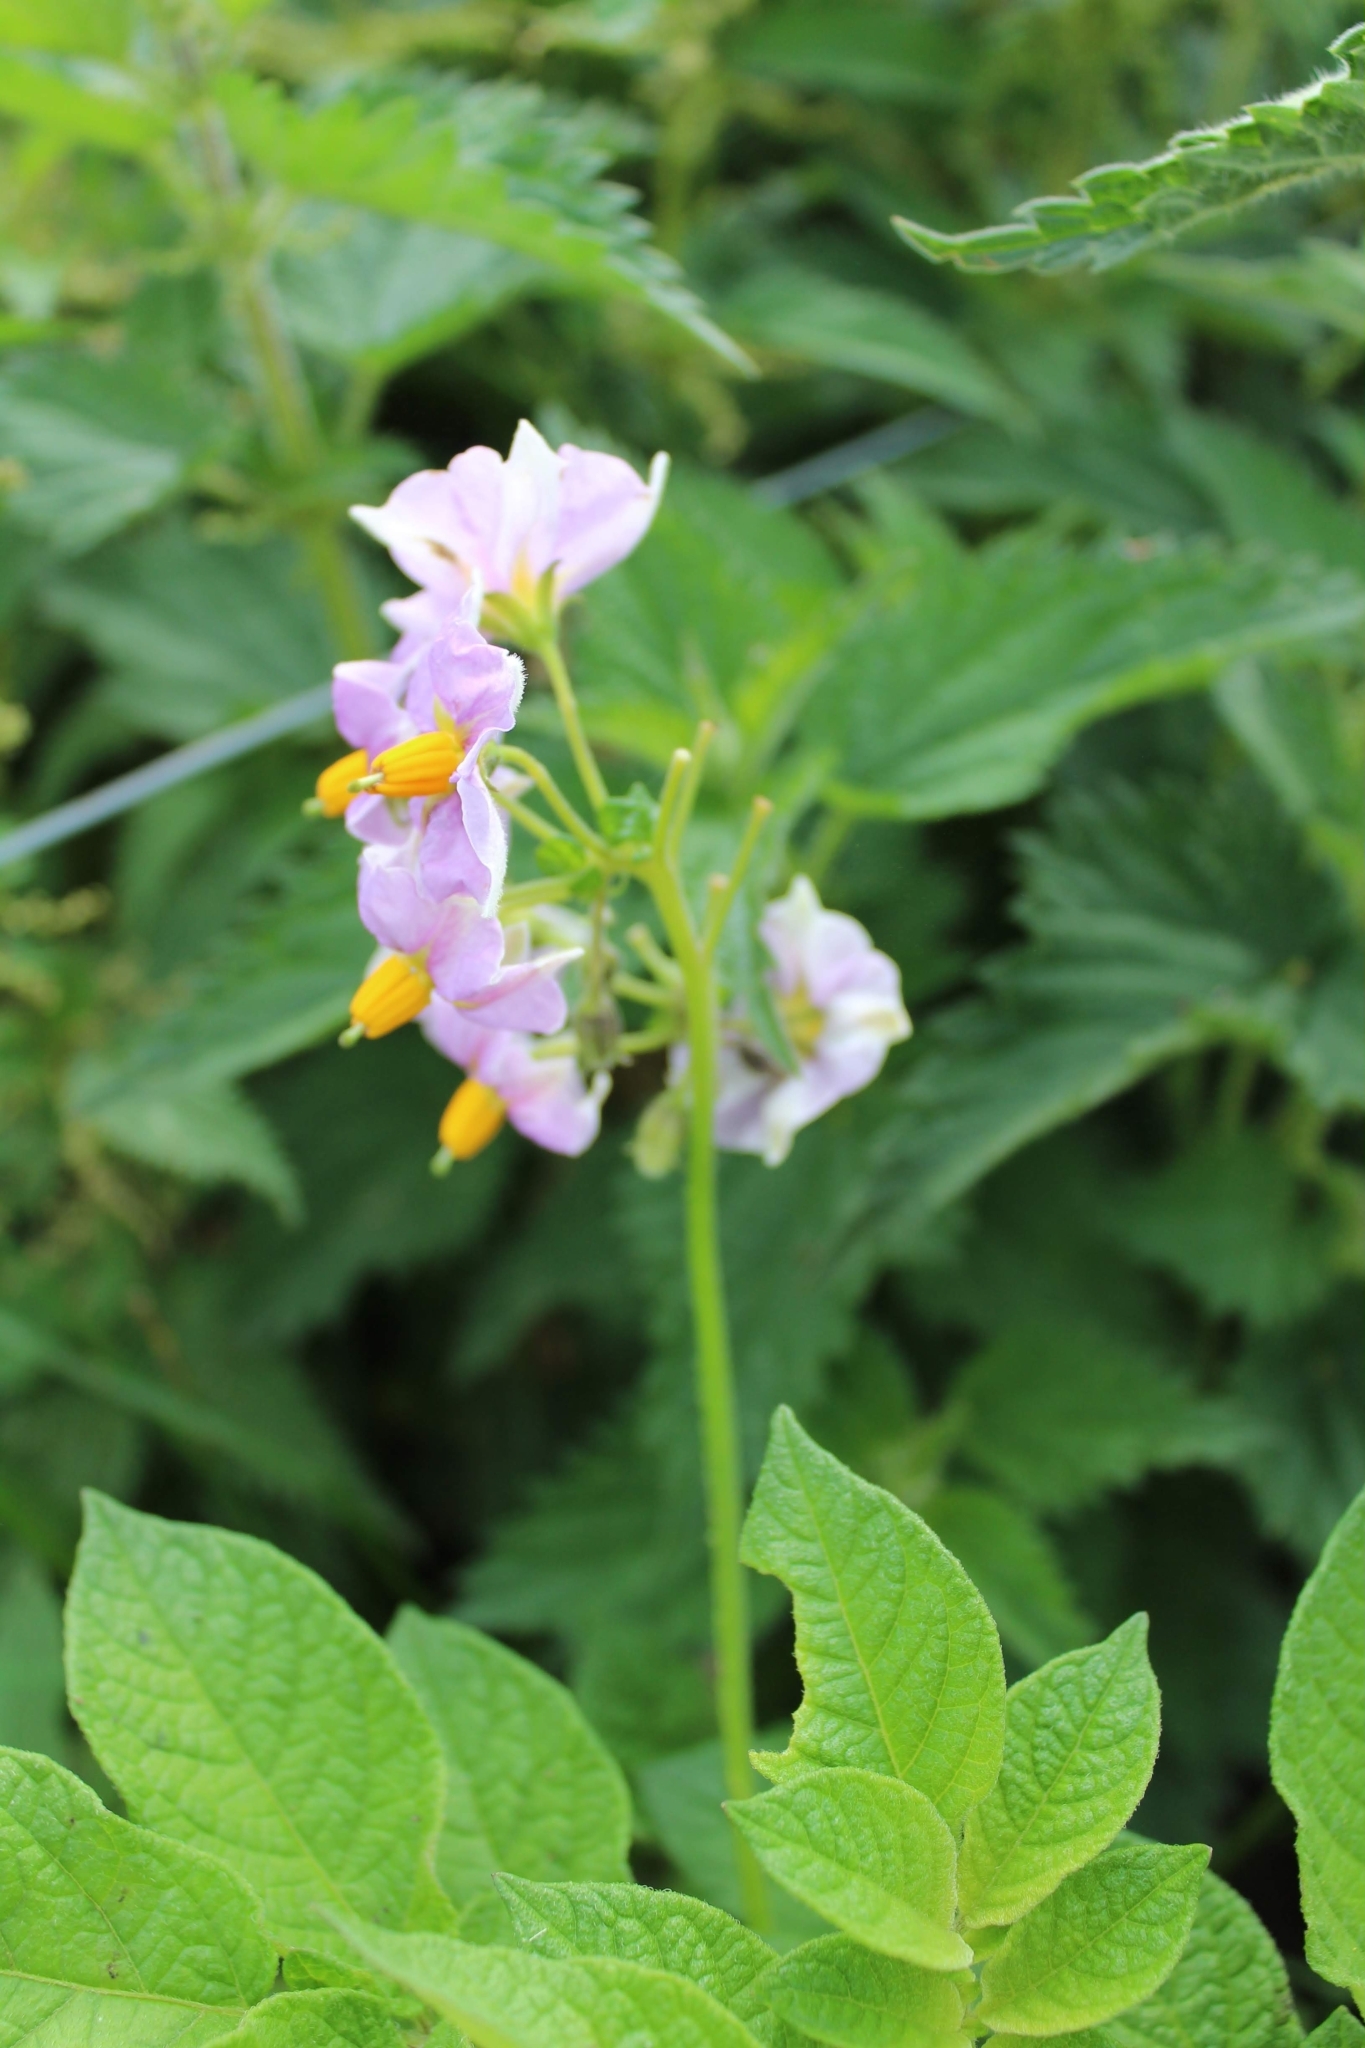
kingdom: Plantae
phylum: Tracheophyta
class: Magnoliopsida
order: Solanales
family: Solanaceae
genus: Solanum
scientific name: Solanum tuberosum
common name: Potato
